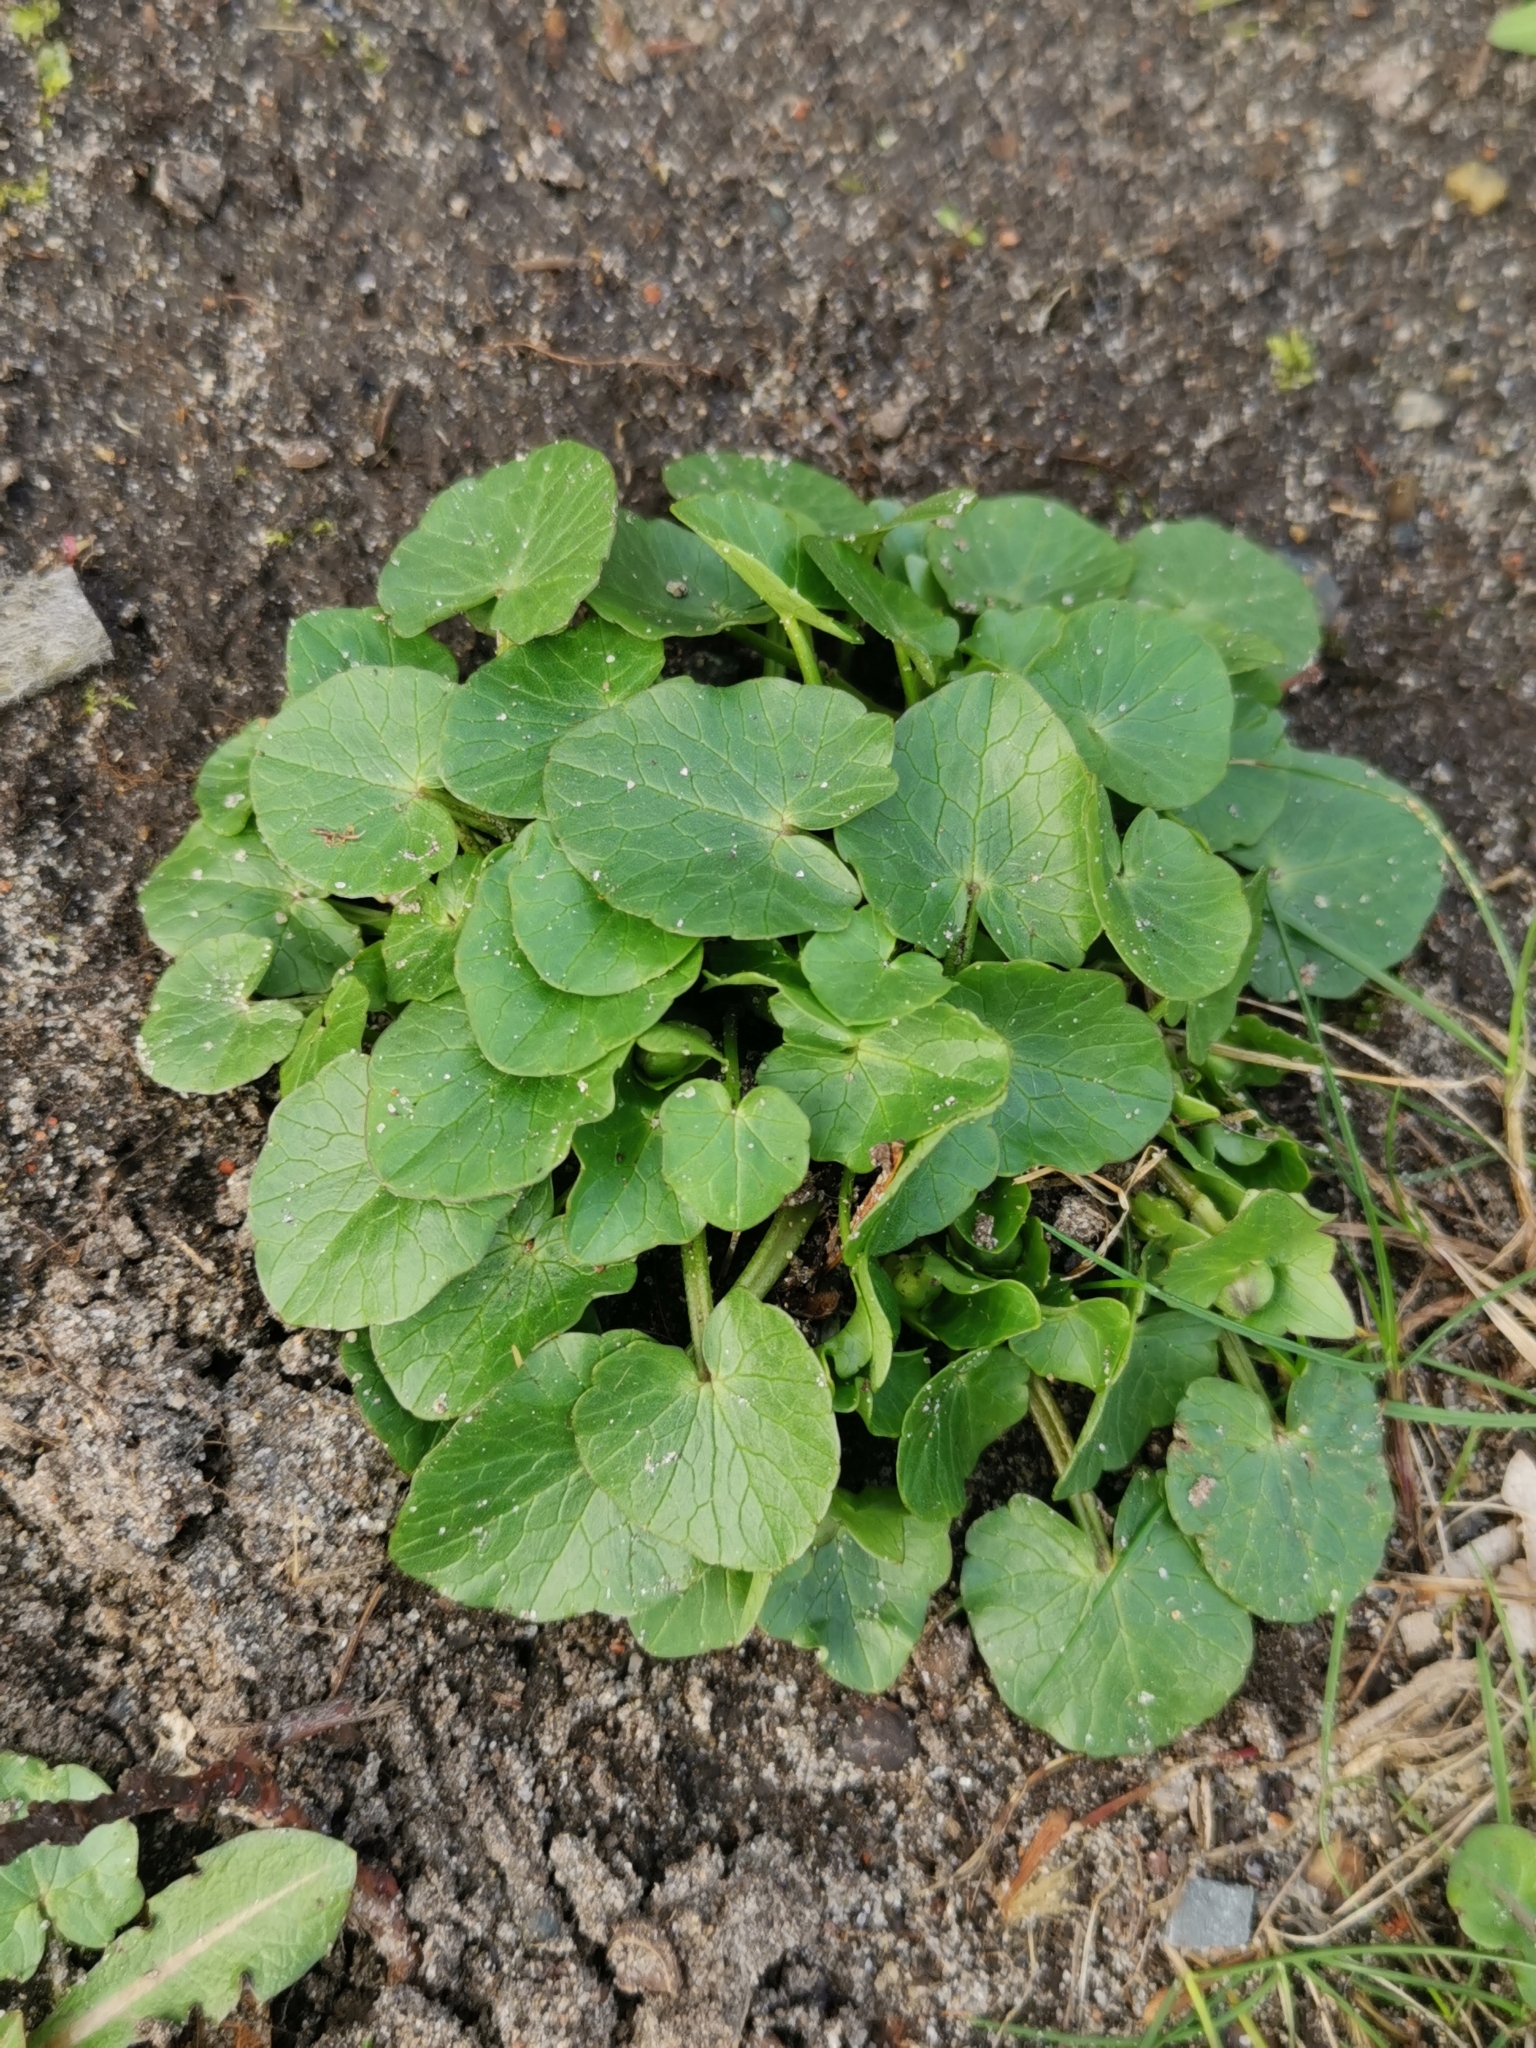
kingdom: Plantae
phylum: Tracheophyta
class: Magnoliopsida
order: Ranunculales
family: Ranunculaceae
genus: Ficaria
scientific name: Ficaria verna
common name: Lesser celandine
